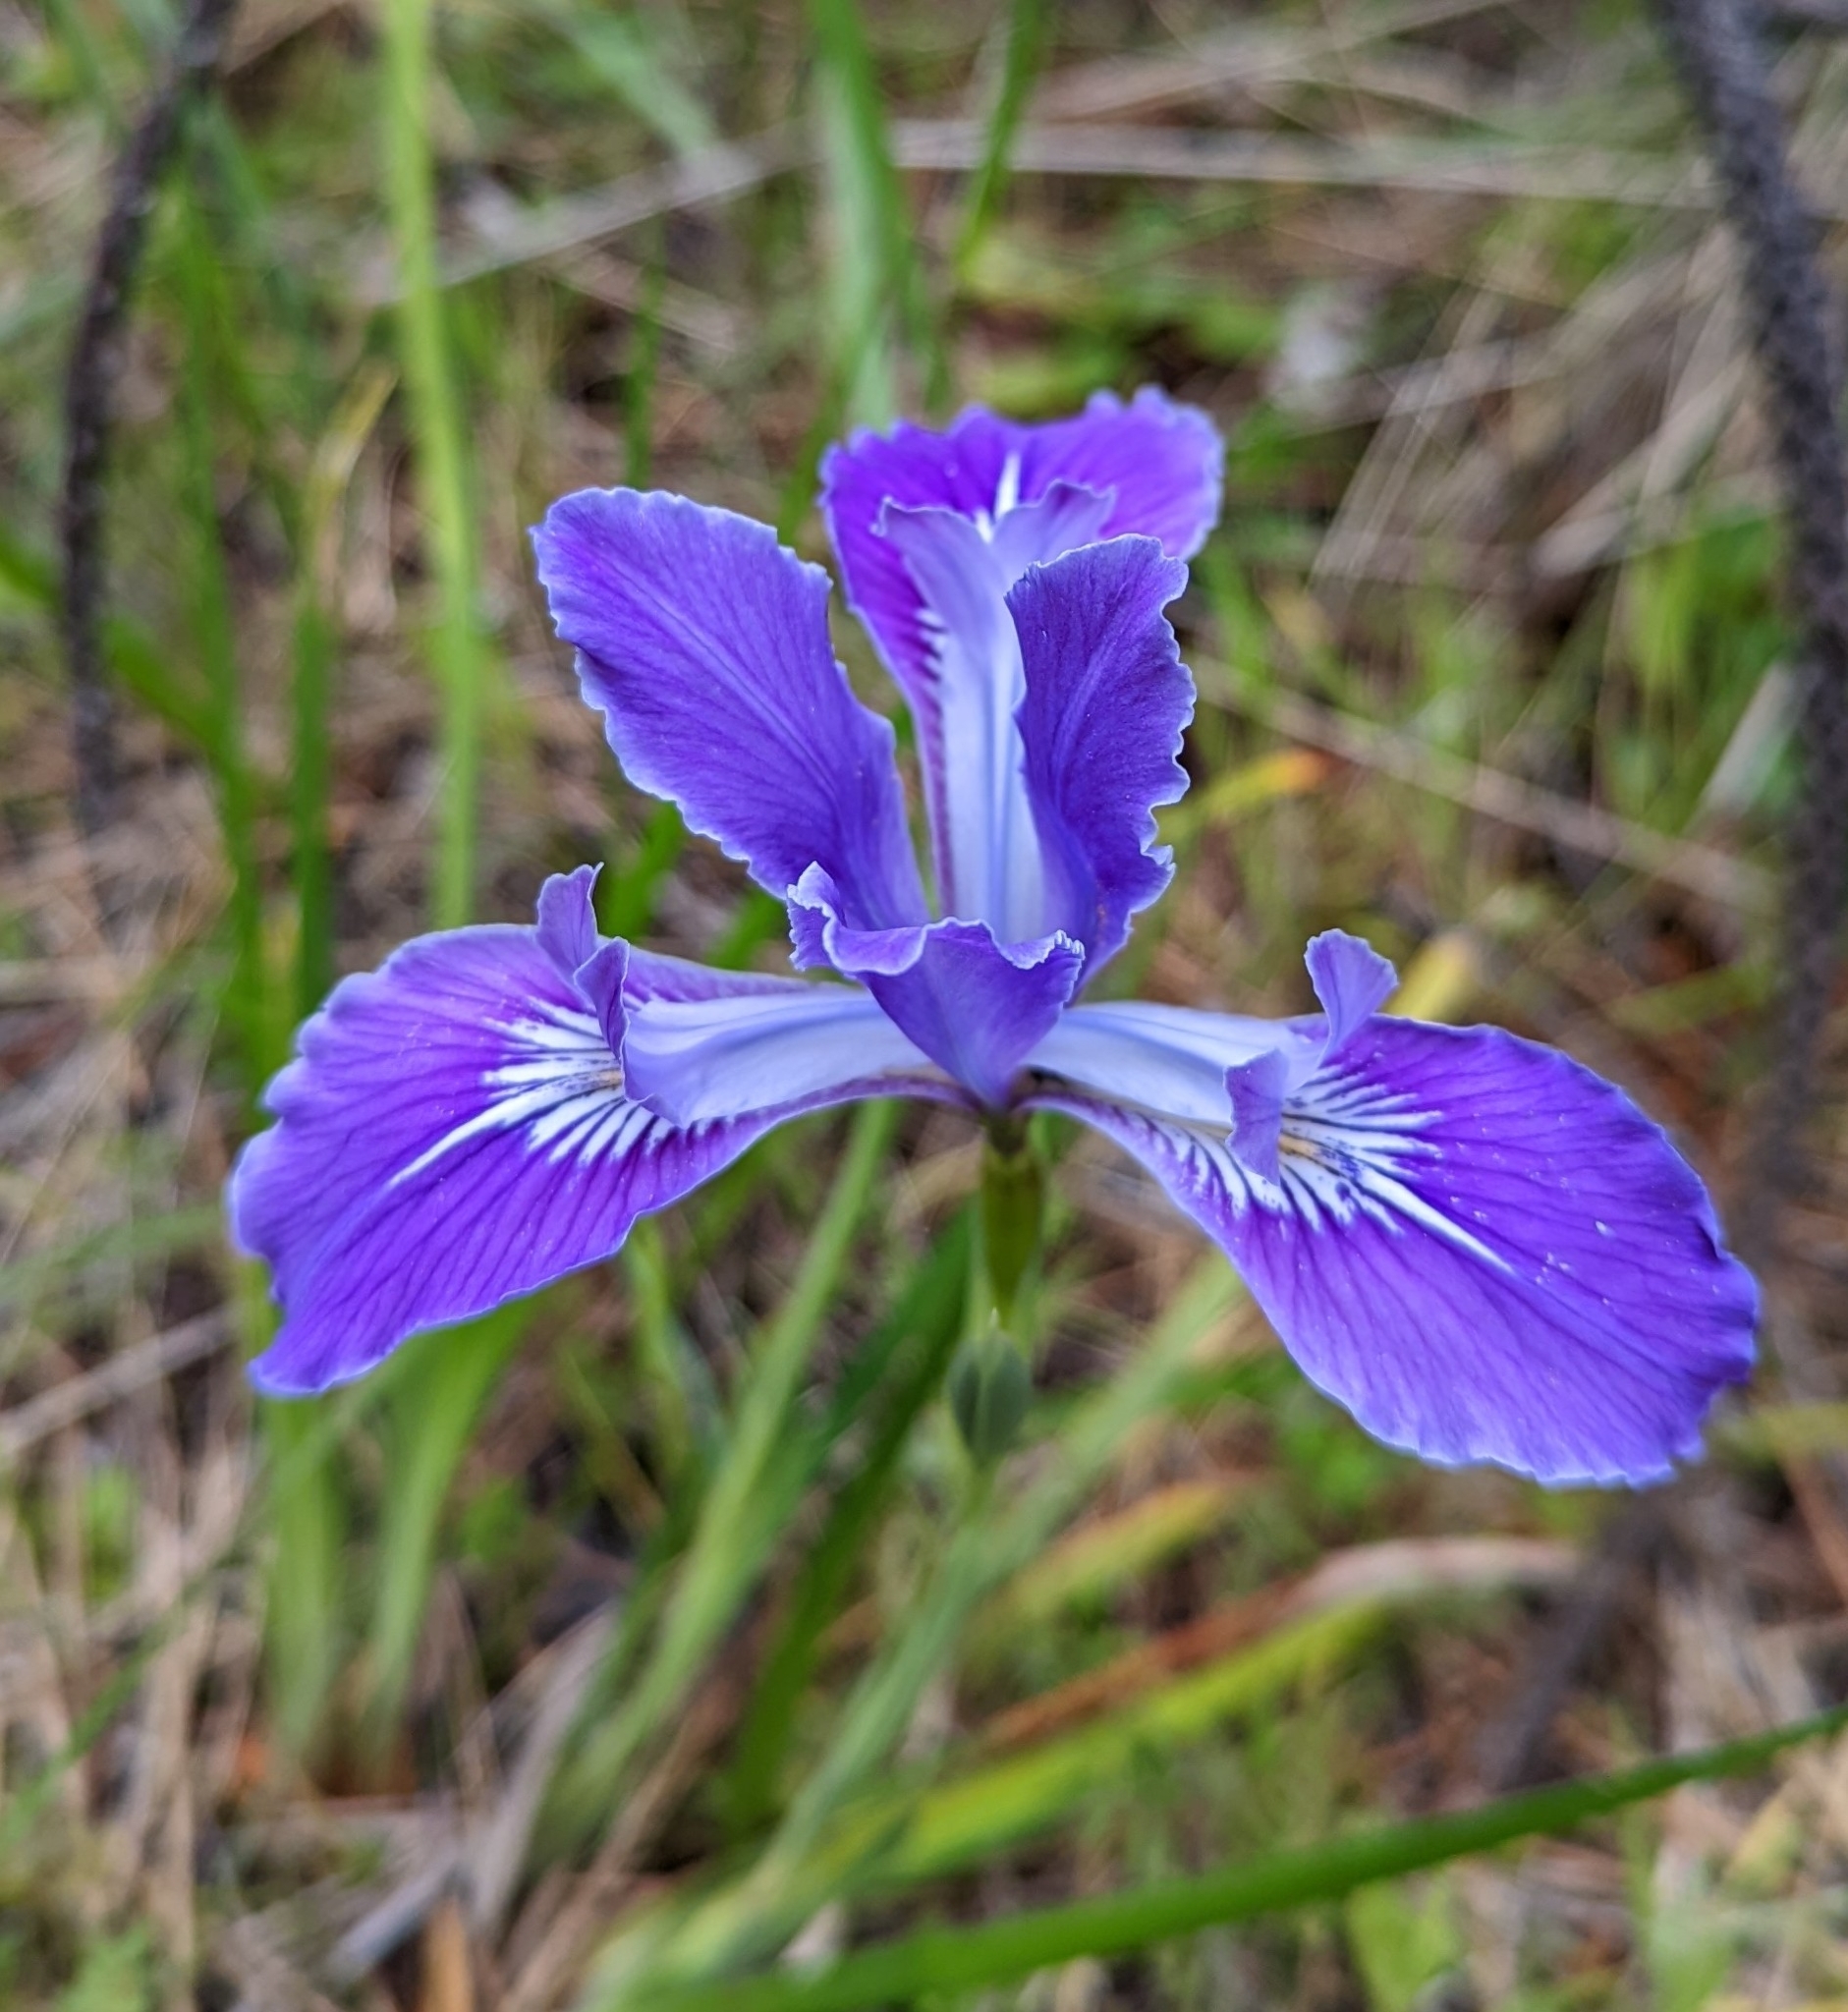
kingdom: Plantae
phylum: Tracheophyta
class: Liliopsida
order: Asparagales
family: Iridaceae
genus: Iris
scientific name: Iris tenax
